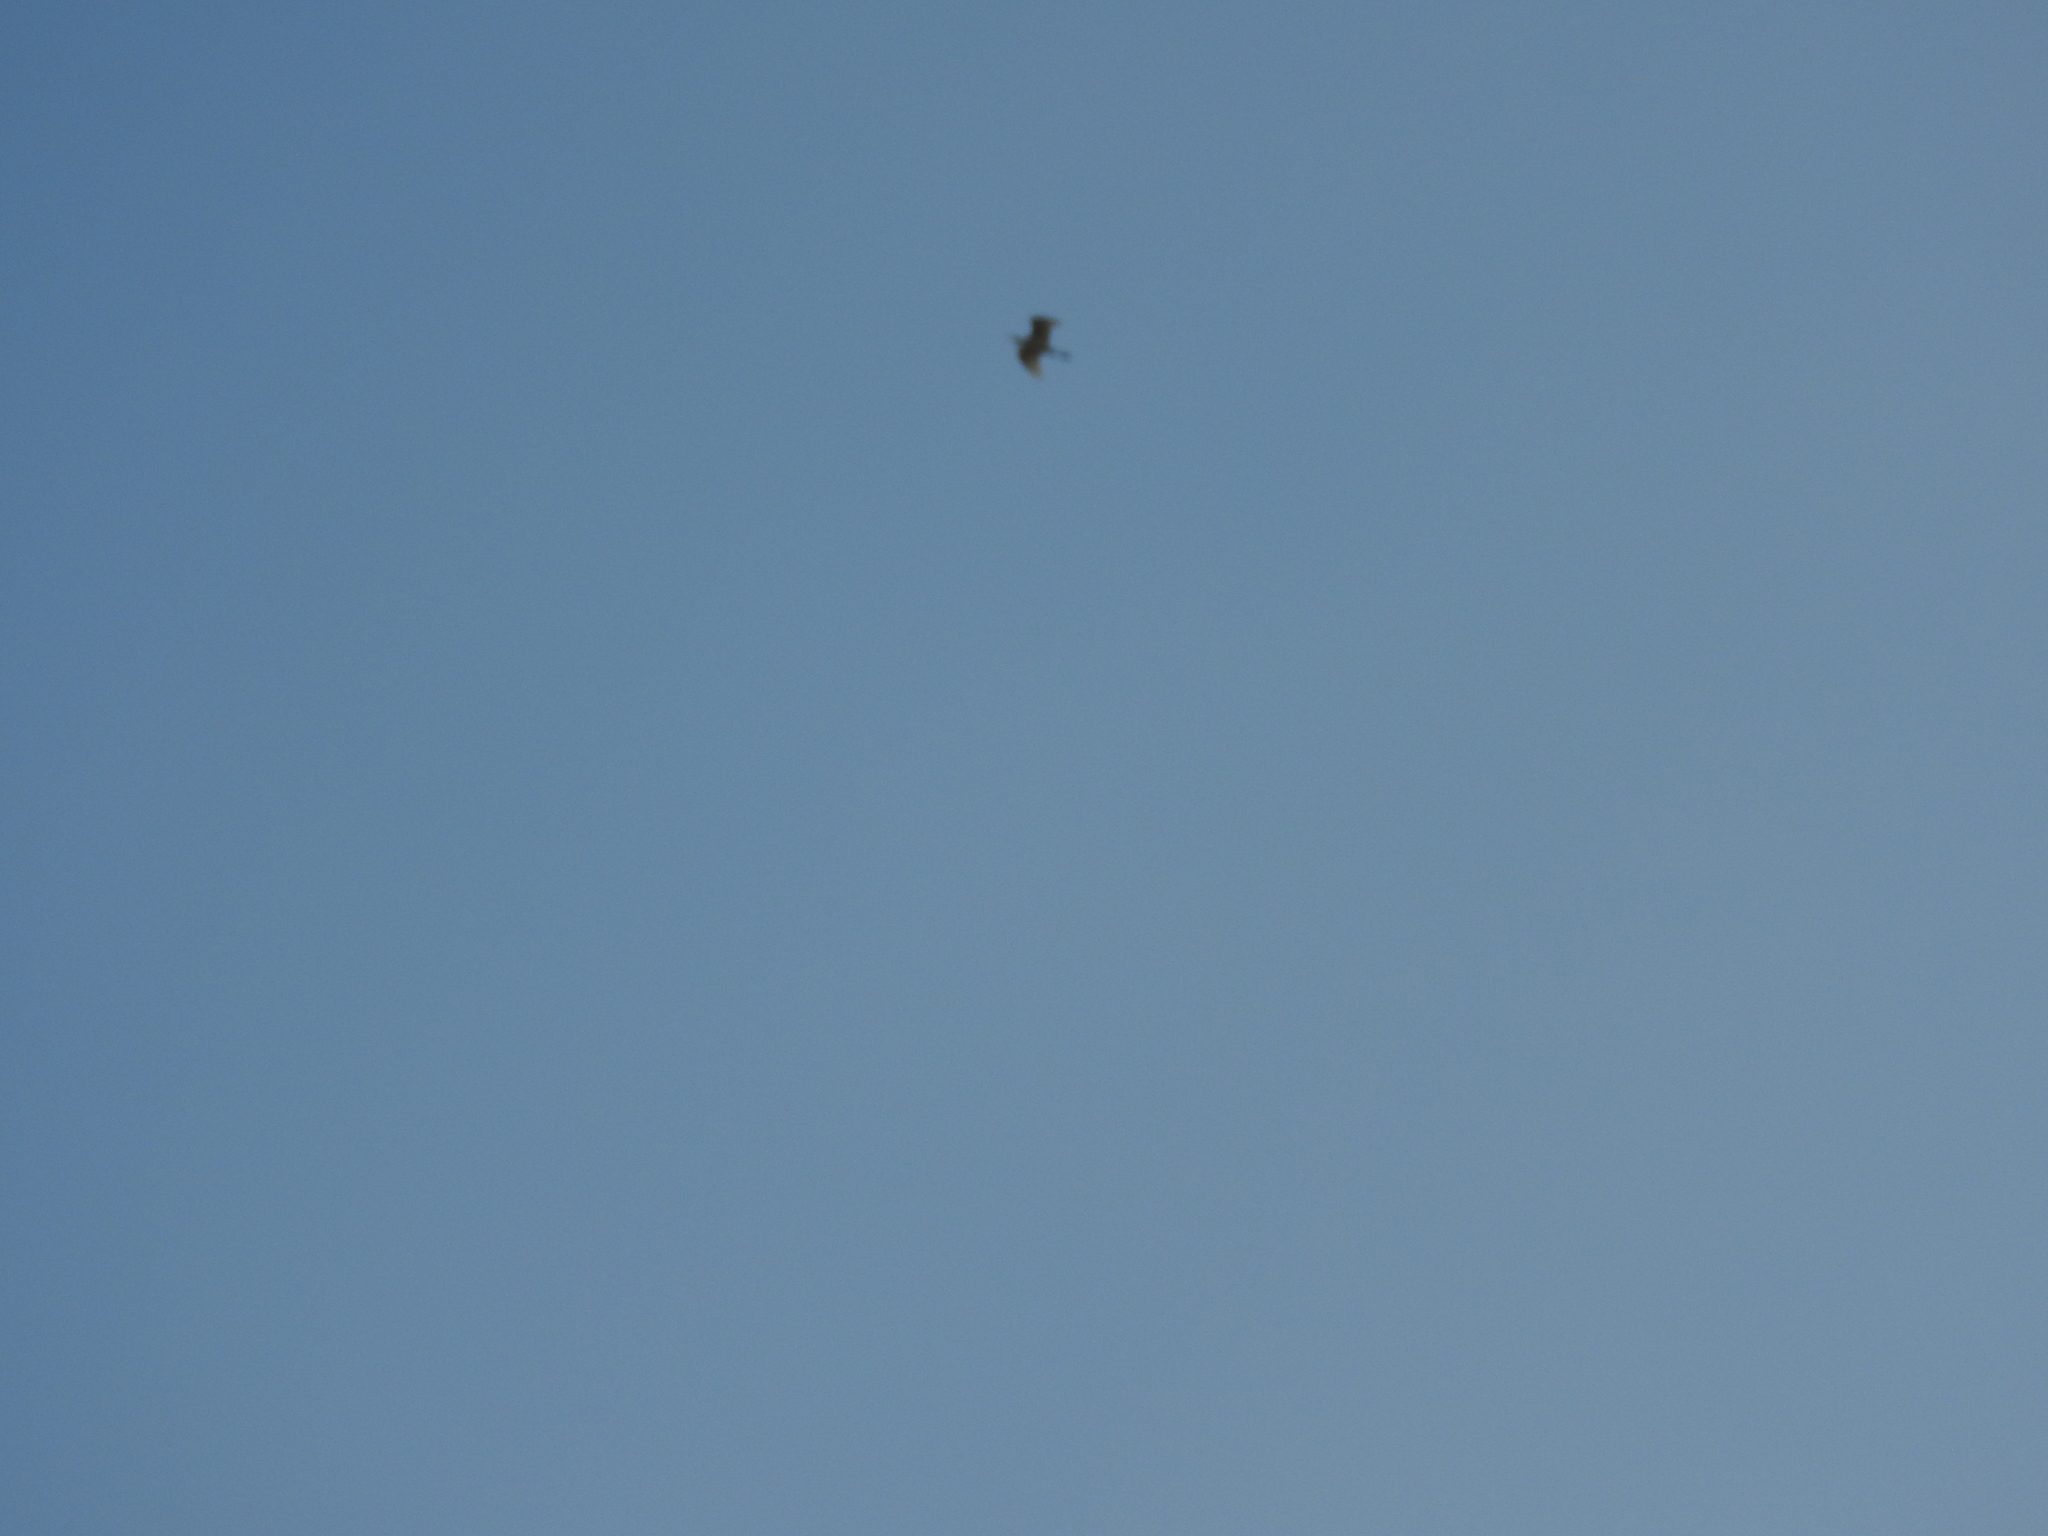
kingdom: Animalia
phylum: Chordata
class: Aves
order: Pelecaniformes
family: Ardeidae
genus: Bubulcus
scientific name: Bubulcus ibis
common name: Cattle egret
